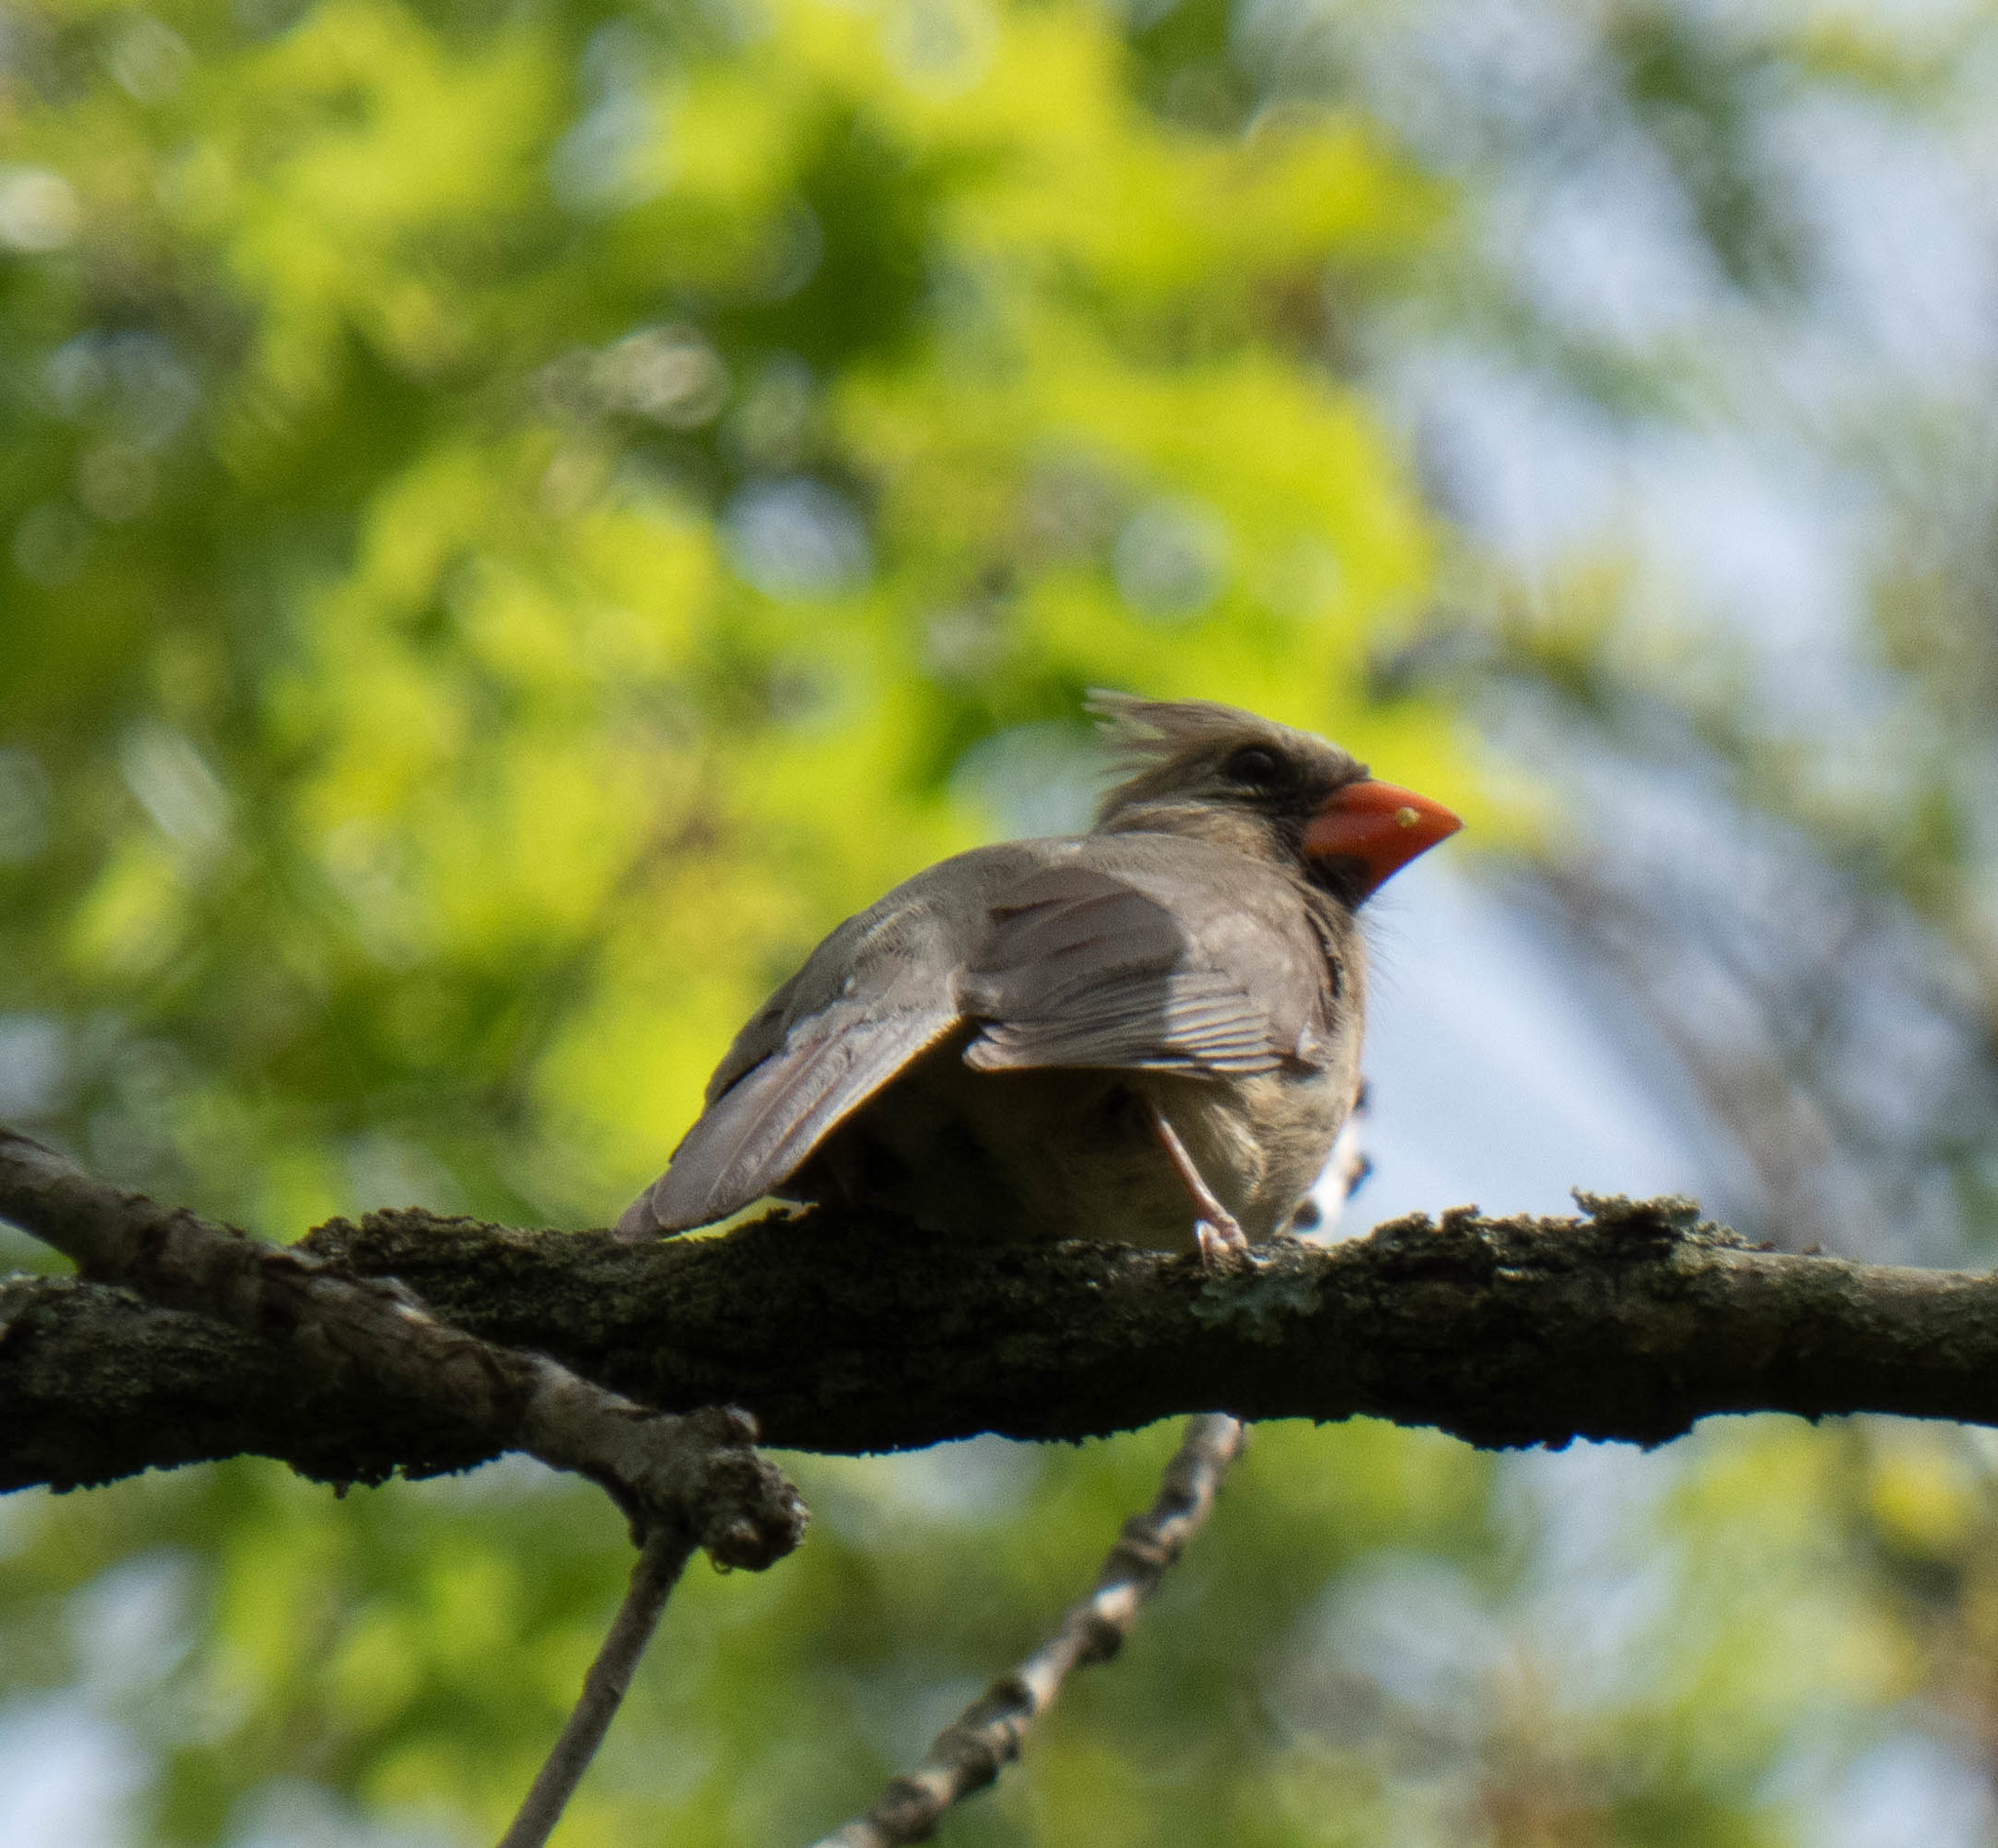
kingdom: Animalia
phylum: Chordata
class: Aves
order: Passeriformes
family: Cardinalidae
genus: Cardinalis
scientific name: Cardinalis cardinalis
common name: Northern cardinal
